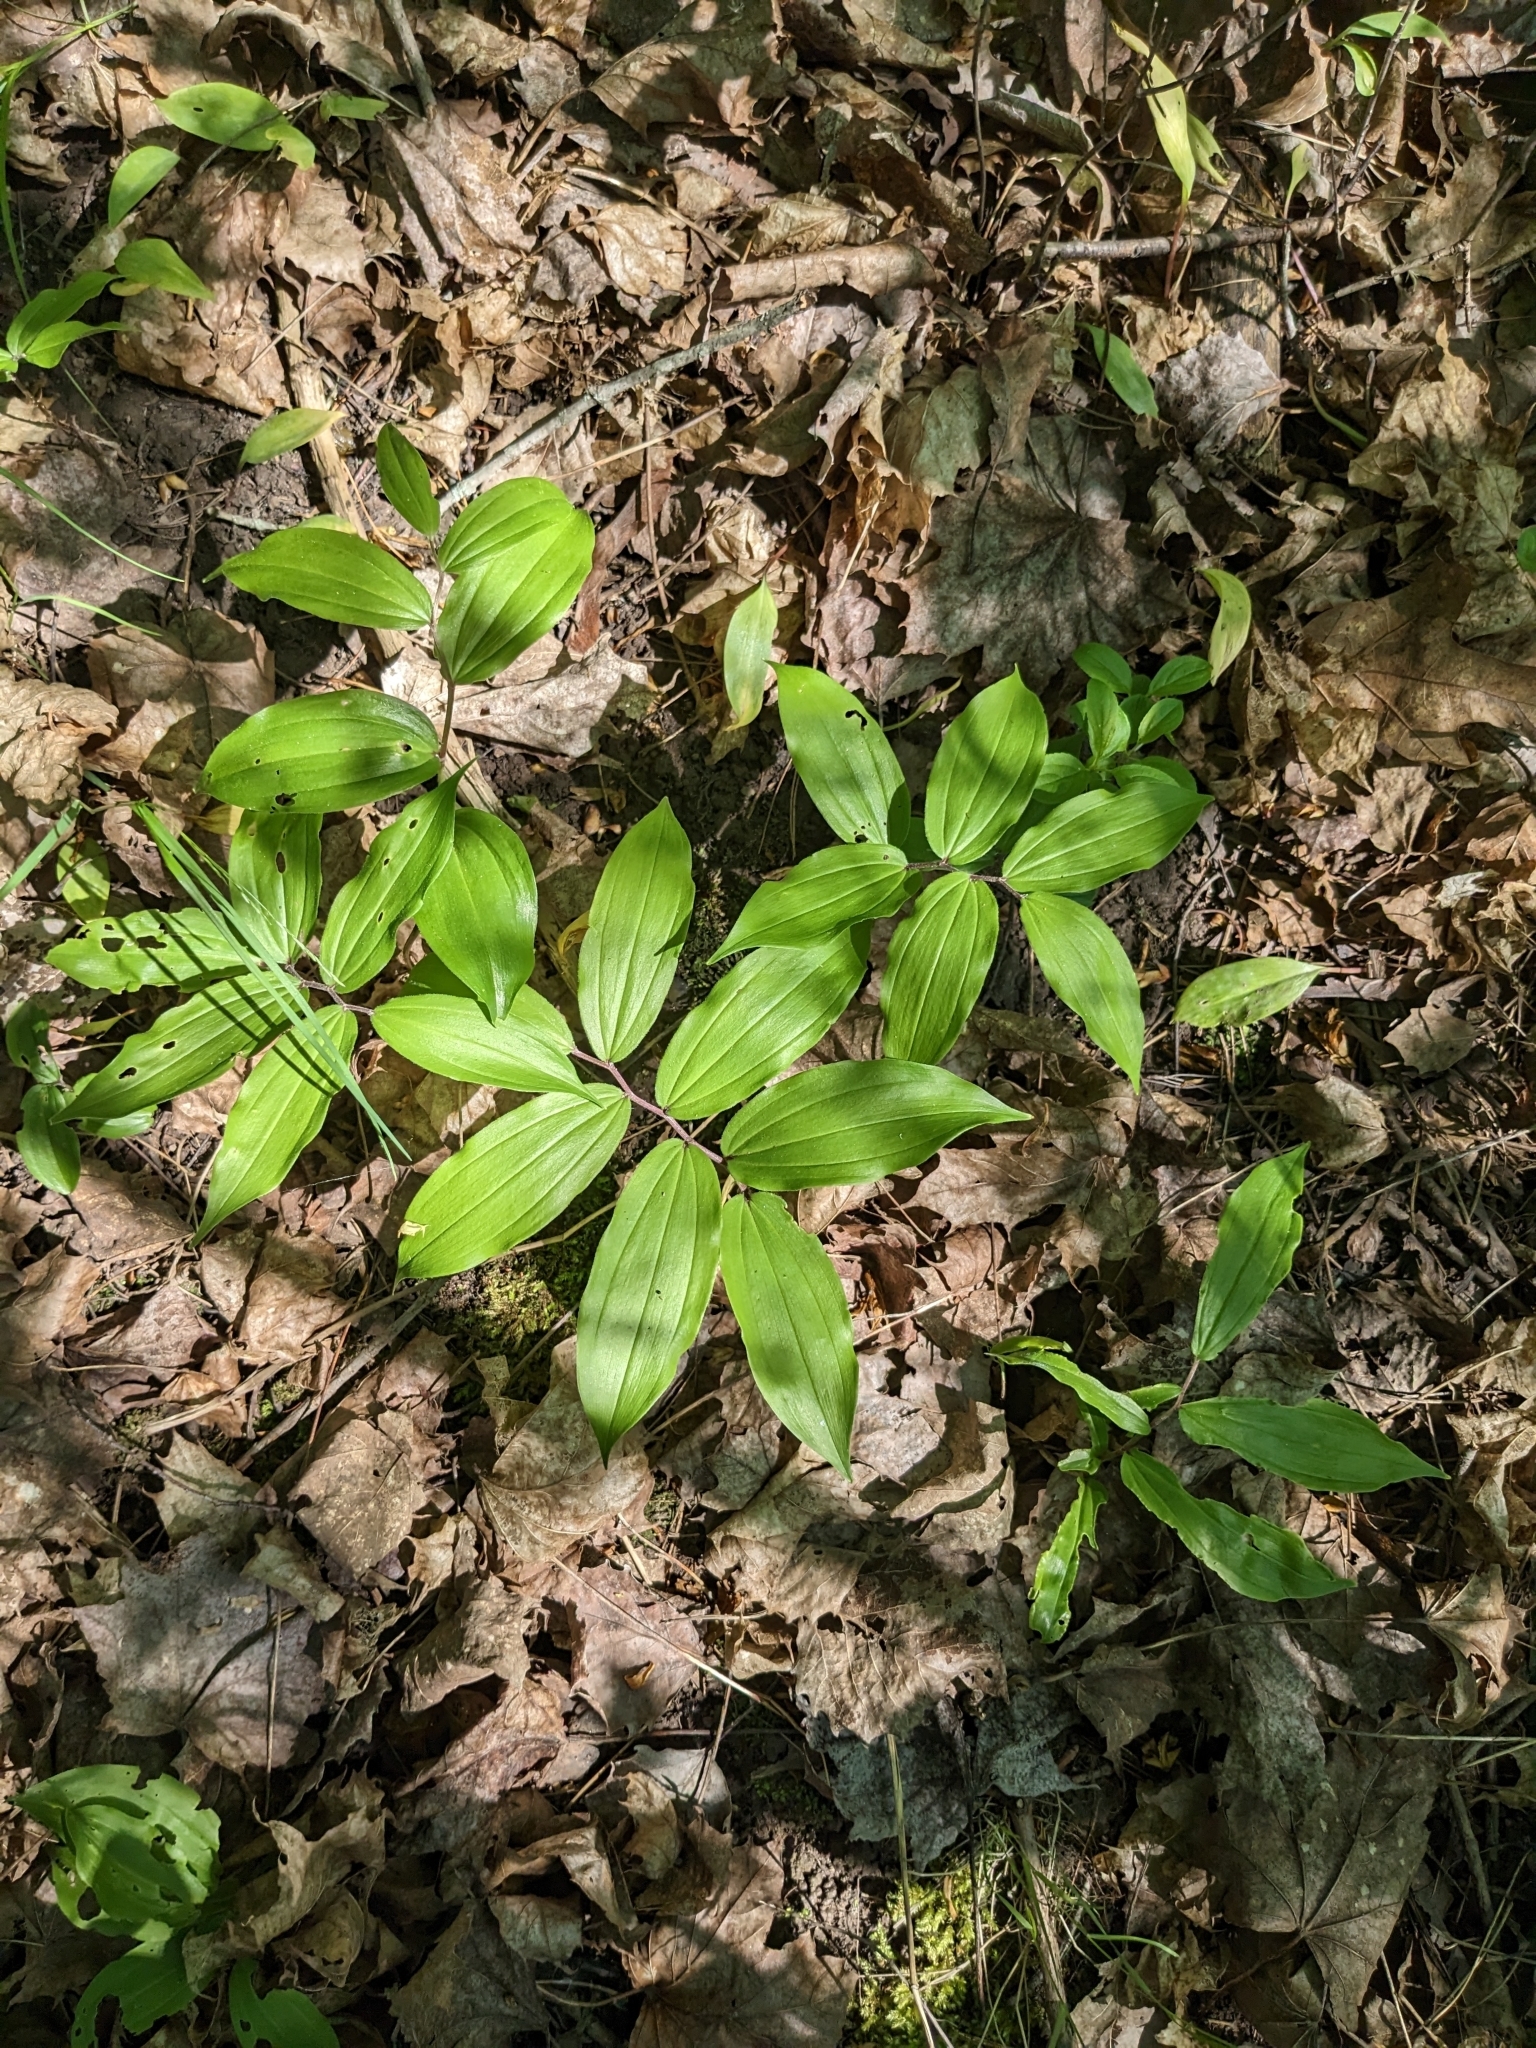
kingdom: Plantae
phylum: Tracheophyta
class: Liliopsida
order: Asparagales
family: Asparagaceae
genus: Maianthemum
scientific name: Maianthemum racemosum
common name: False spikenard
